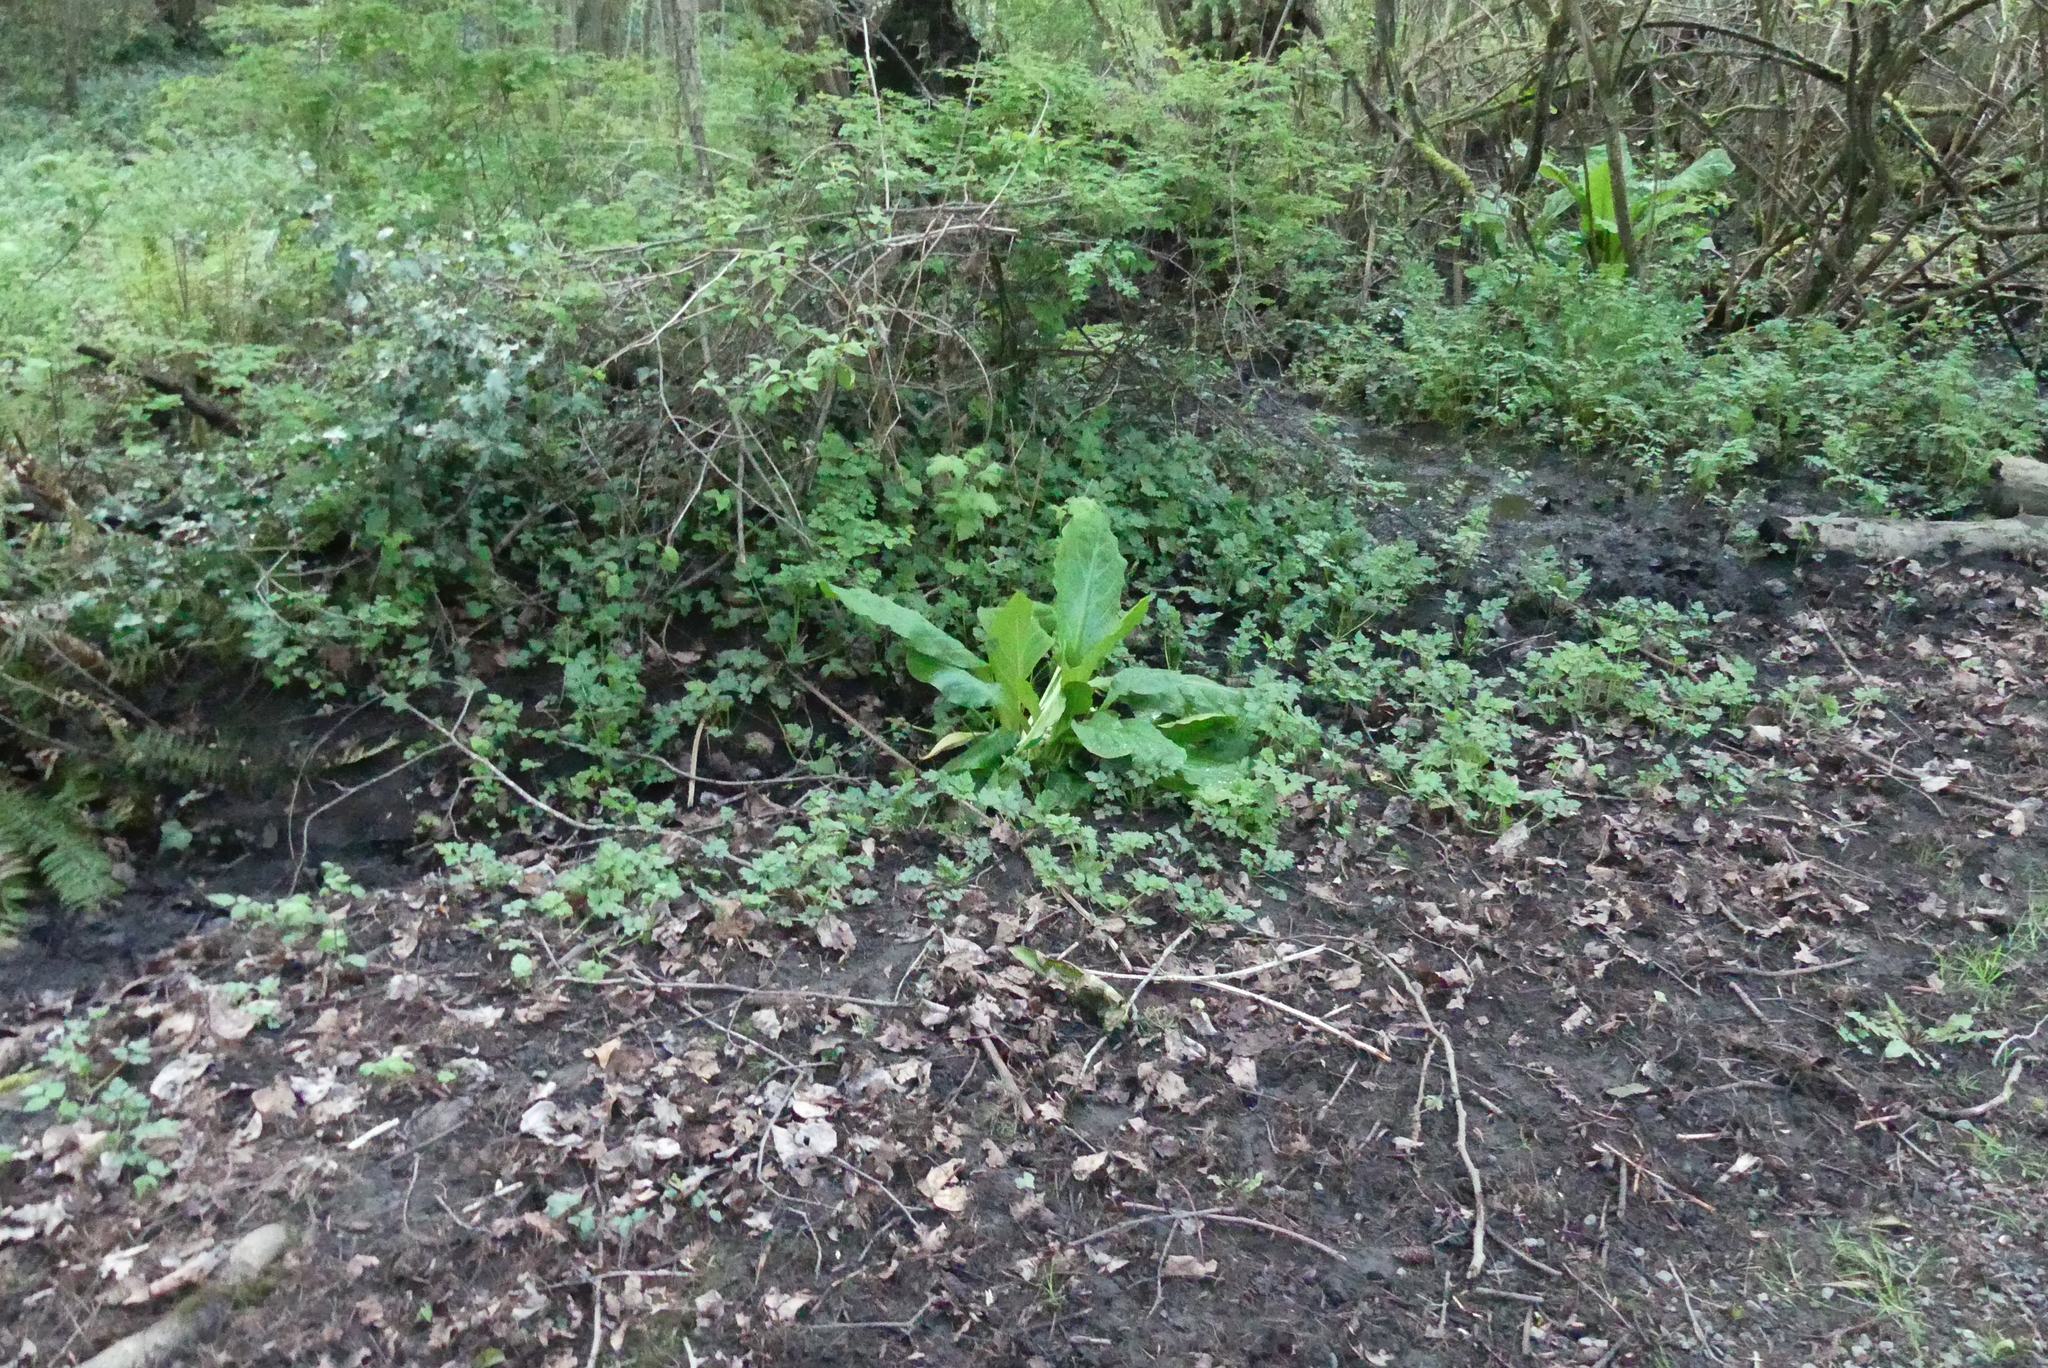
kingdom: Plantae
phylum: Tracheophyta
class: Liliopsida
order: Alismatales
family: Araceae
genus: Lysichiton
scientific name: Lysichiton americanus
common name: American skunk cabbage
